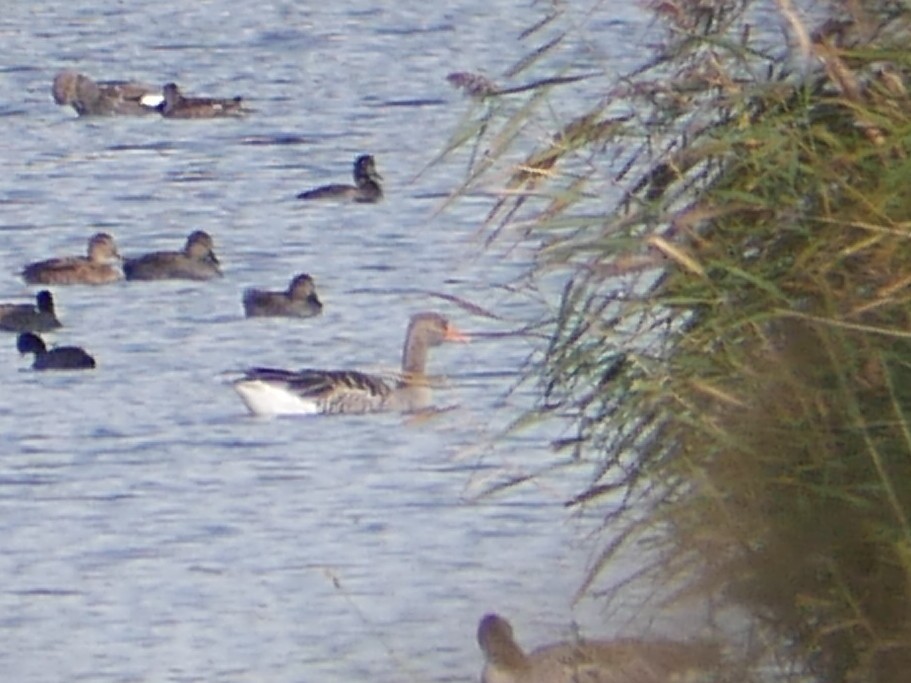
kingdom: Animalia
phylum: Chordata
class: Aves
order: Anseriformes
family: Anatidae
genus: Anser
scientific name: Anser anser
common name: Greylag goose
